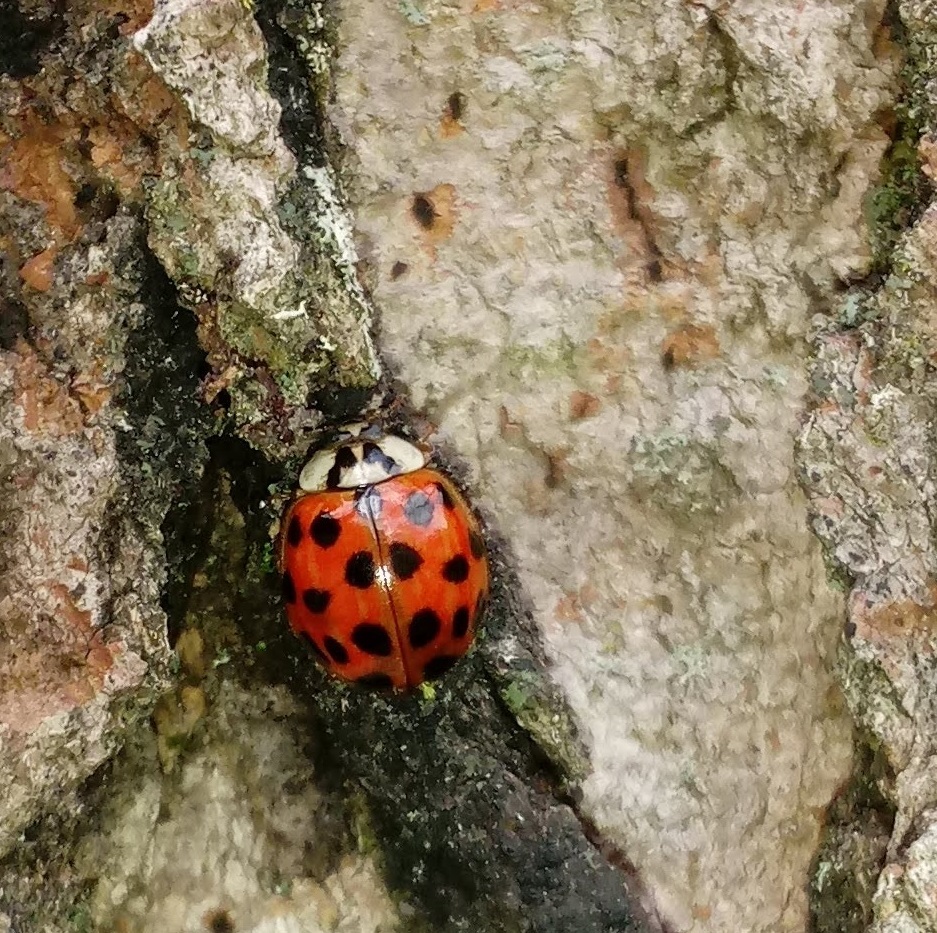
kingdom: Animalia
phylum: Arthropoda
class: Insecta
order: Coleoptera
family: Coccinellidae
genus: Harmonia
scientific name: Harmonia axyridis
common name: Harlequin ladybird
